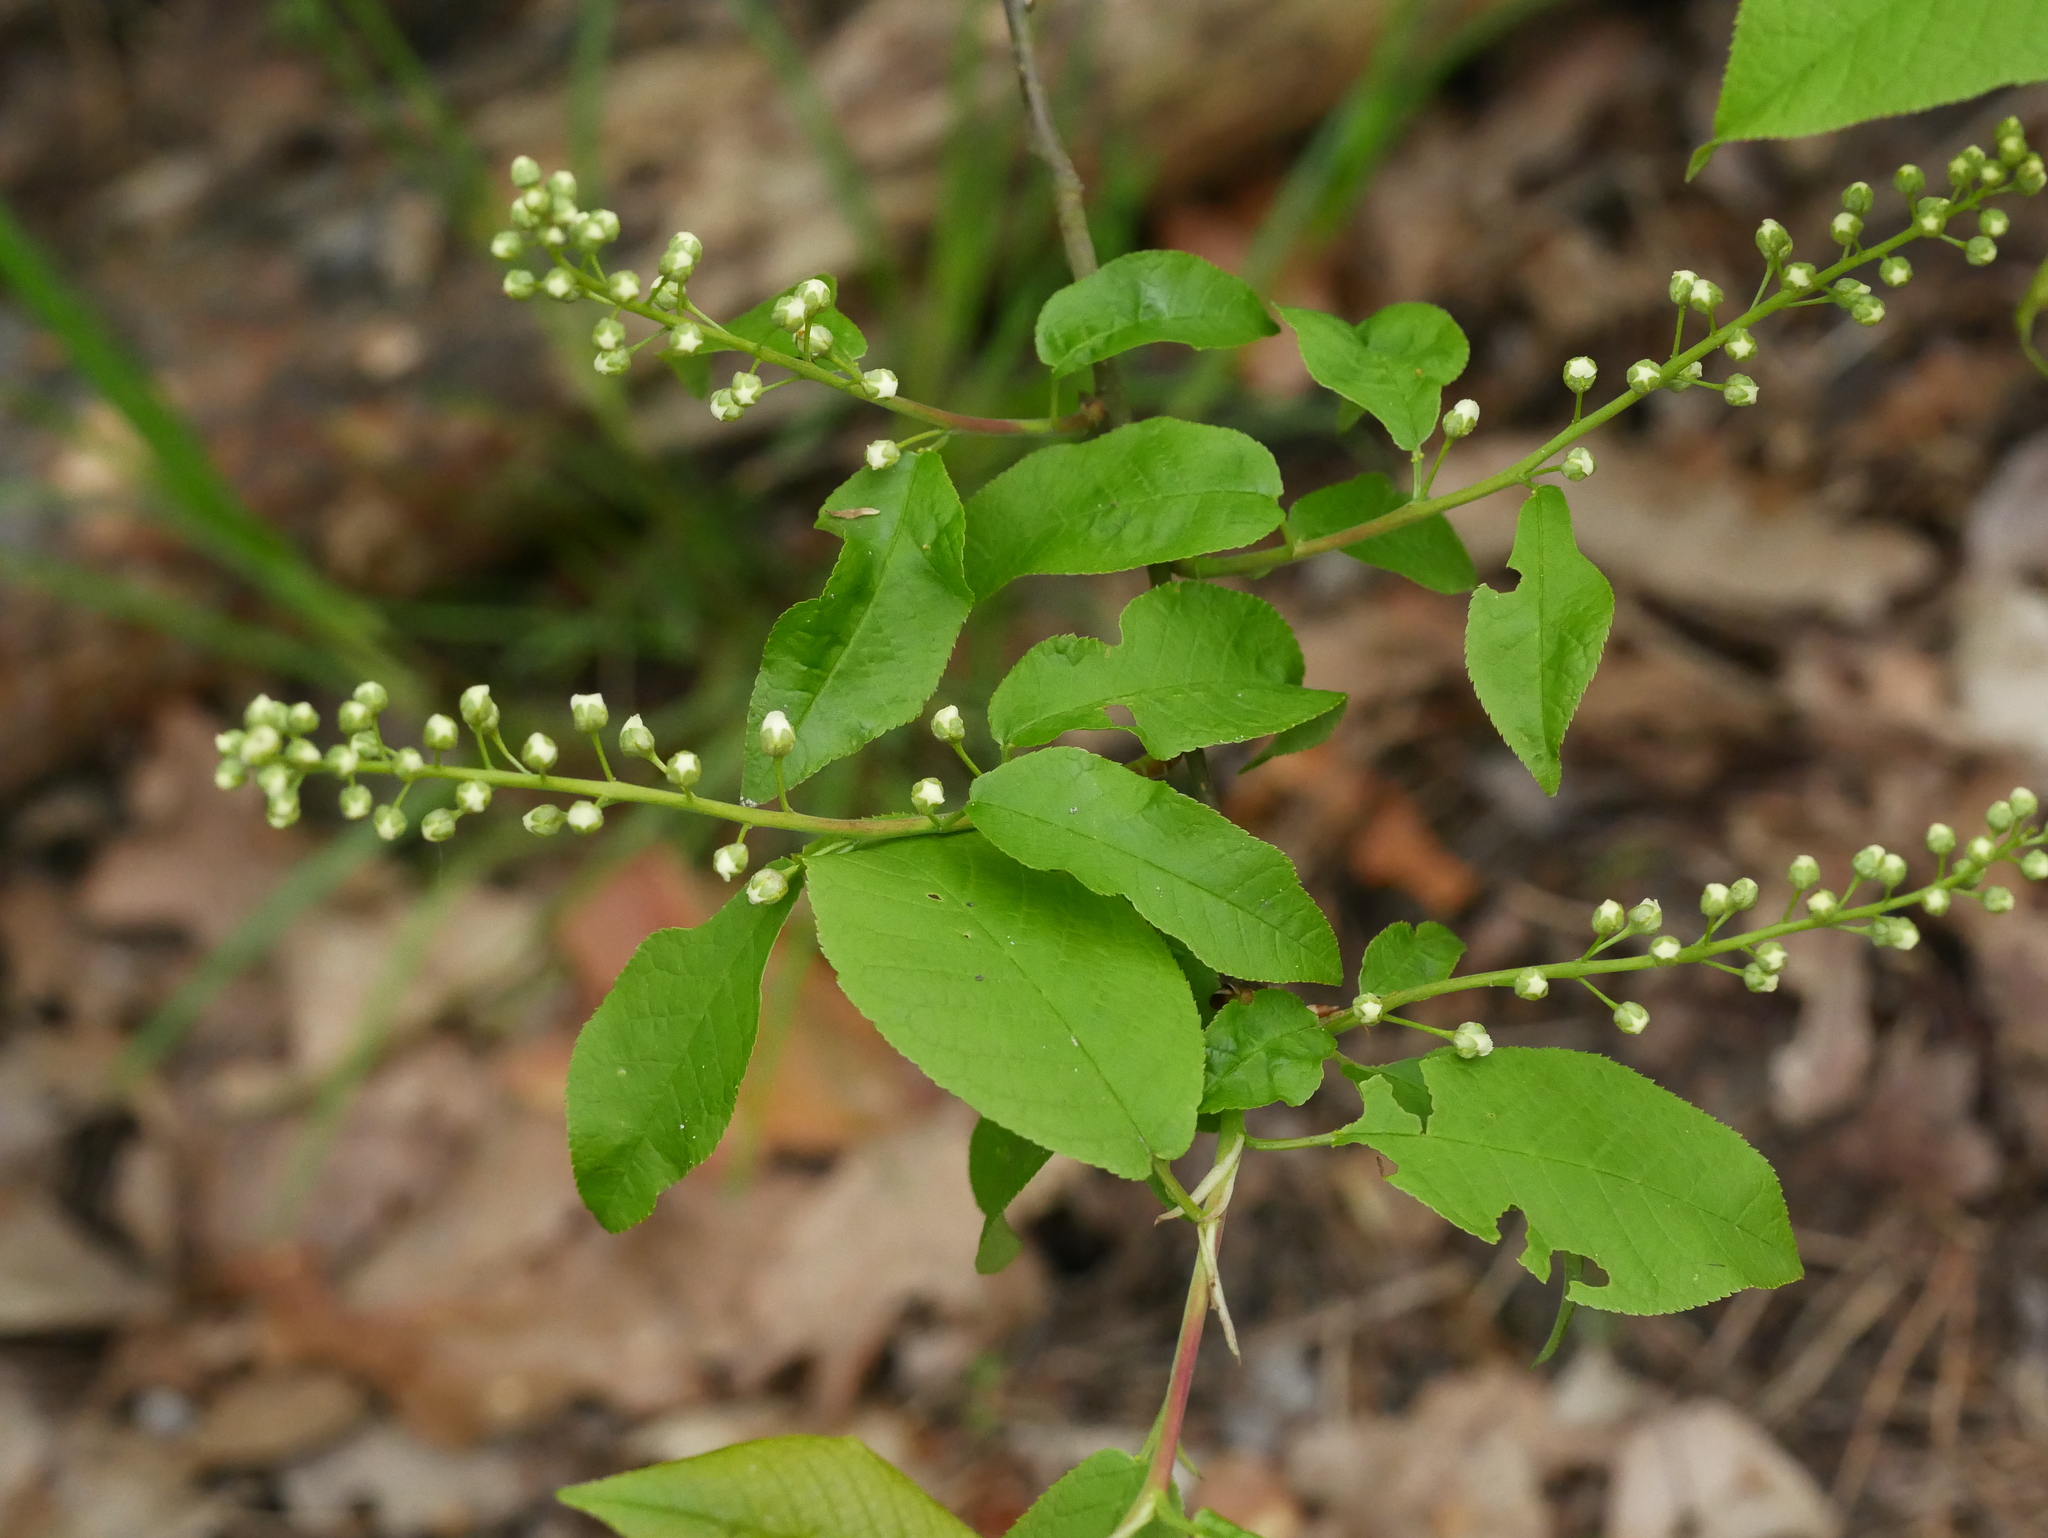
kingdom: Plantae
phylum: Tracheophyta
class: Magnoliopsida
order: Rosales
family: Rosaceae
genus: Prunus
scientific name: Prunus padus
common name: Bird cherry
